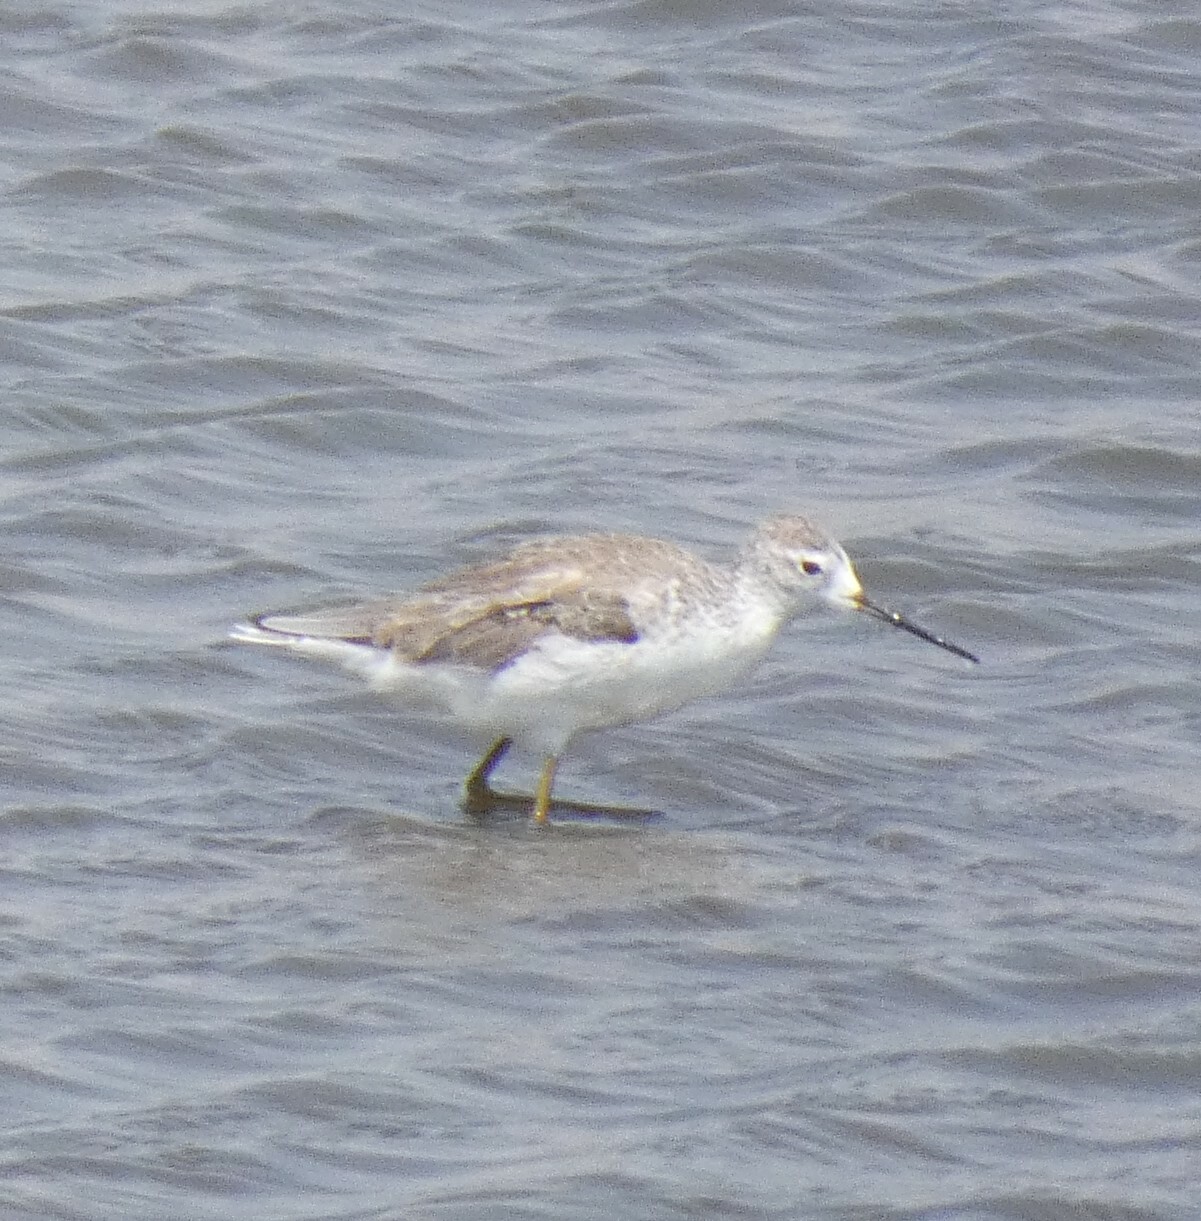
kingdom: Animalia
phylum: Chordata
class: Aves
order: Charadriiformes
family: Scolopacidae
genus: Tringa
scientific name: Tringa stagnatilis
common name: Marsh sandpiper
